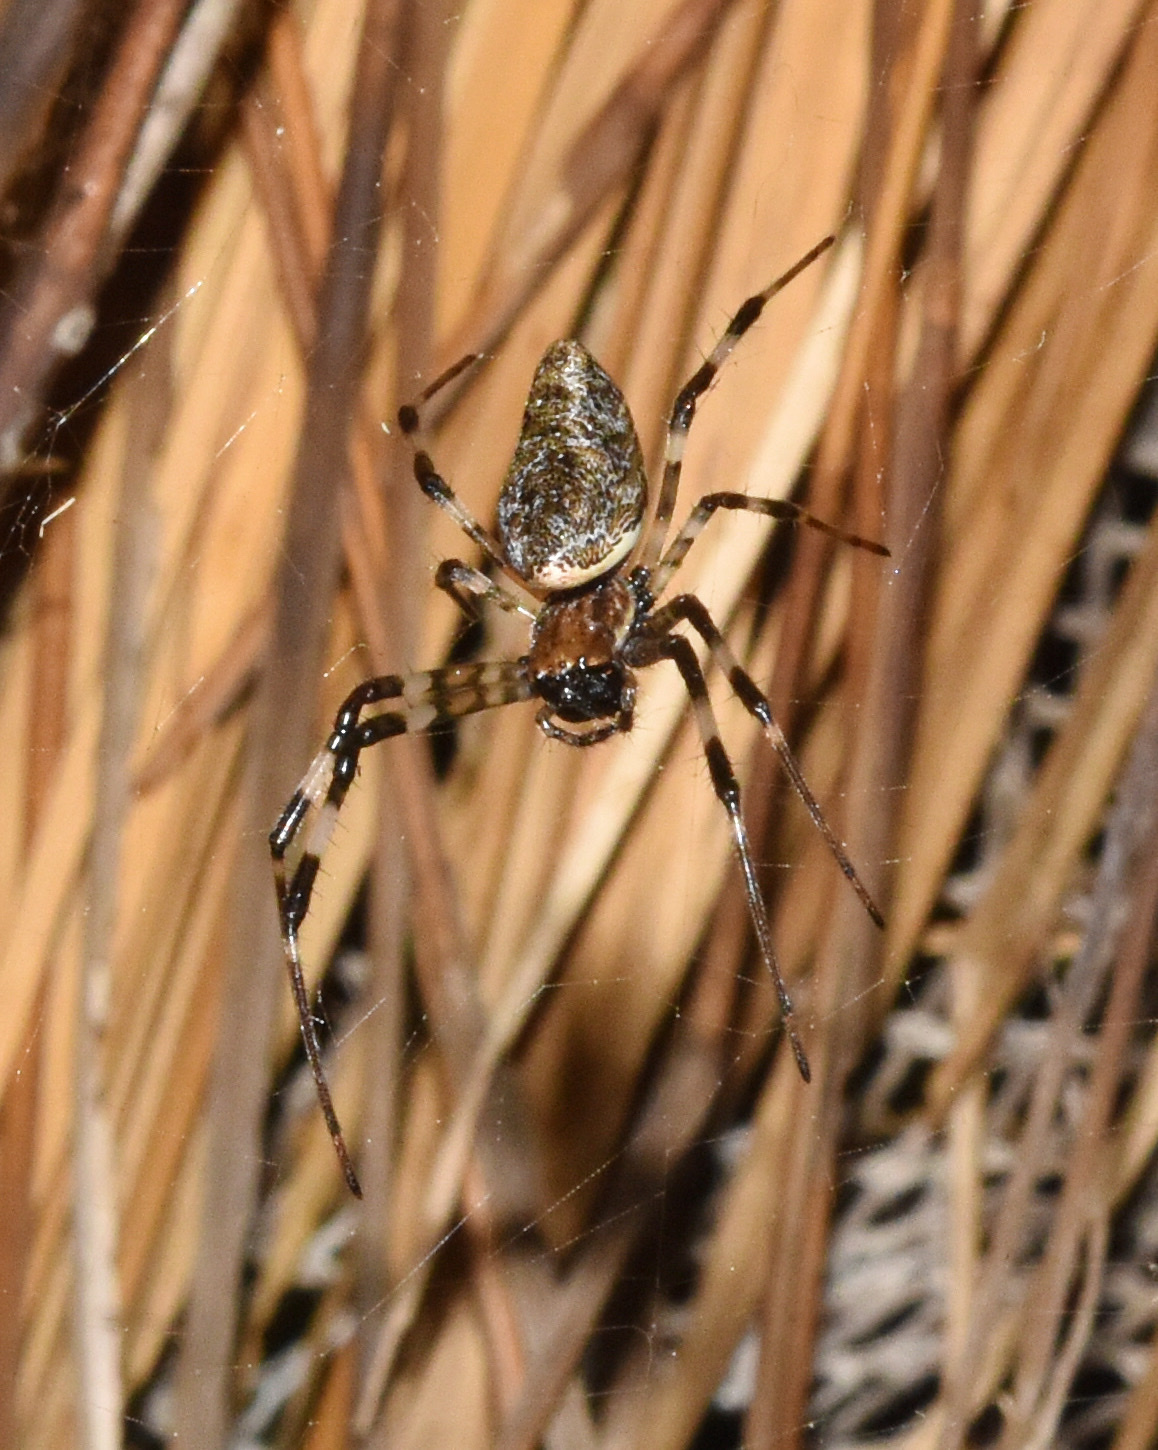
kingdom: Animalia
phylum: Arthropoda
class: Arachnida
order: Araneae
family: Araneidae
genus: Nephilingis
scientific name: Nephilingis cruentata
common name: African hermit spider
